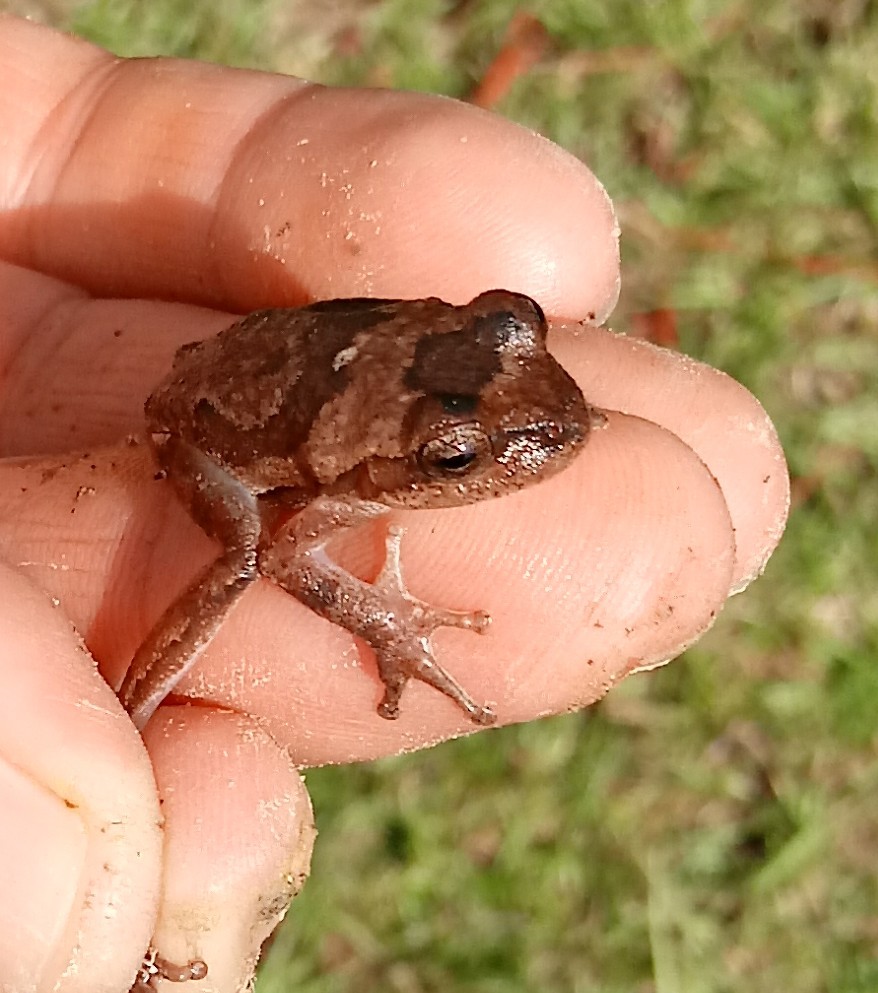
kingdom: Animalia
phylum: Chordata
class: Amphibia
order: Anura
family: Hylidae
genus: Hyla
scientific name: Hyla femoralis
